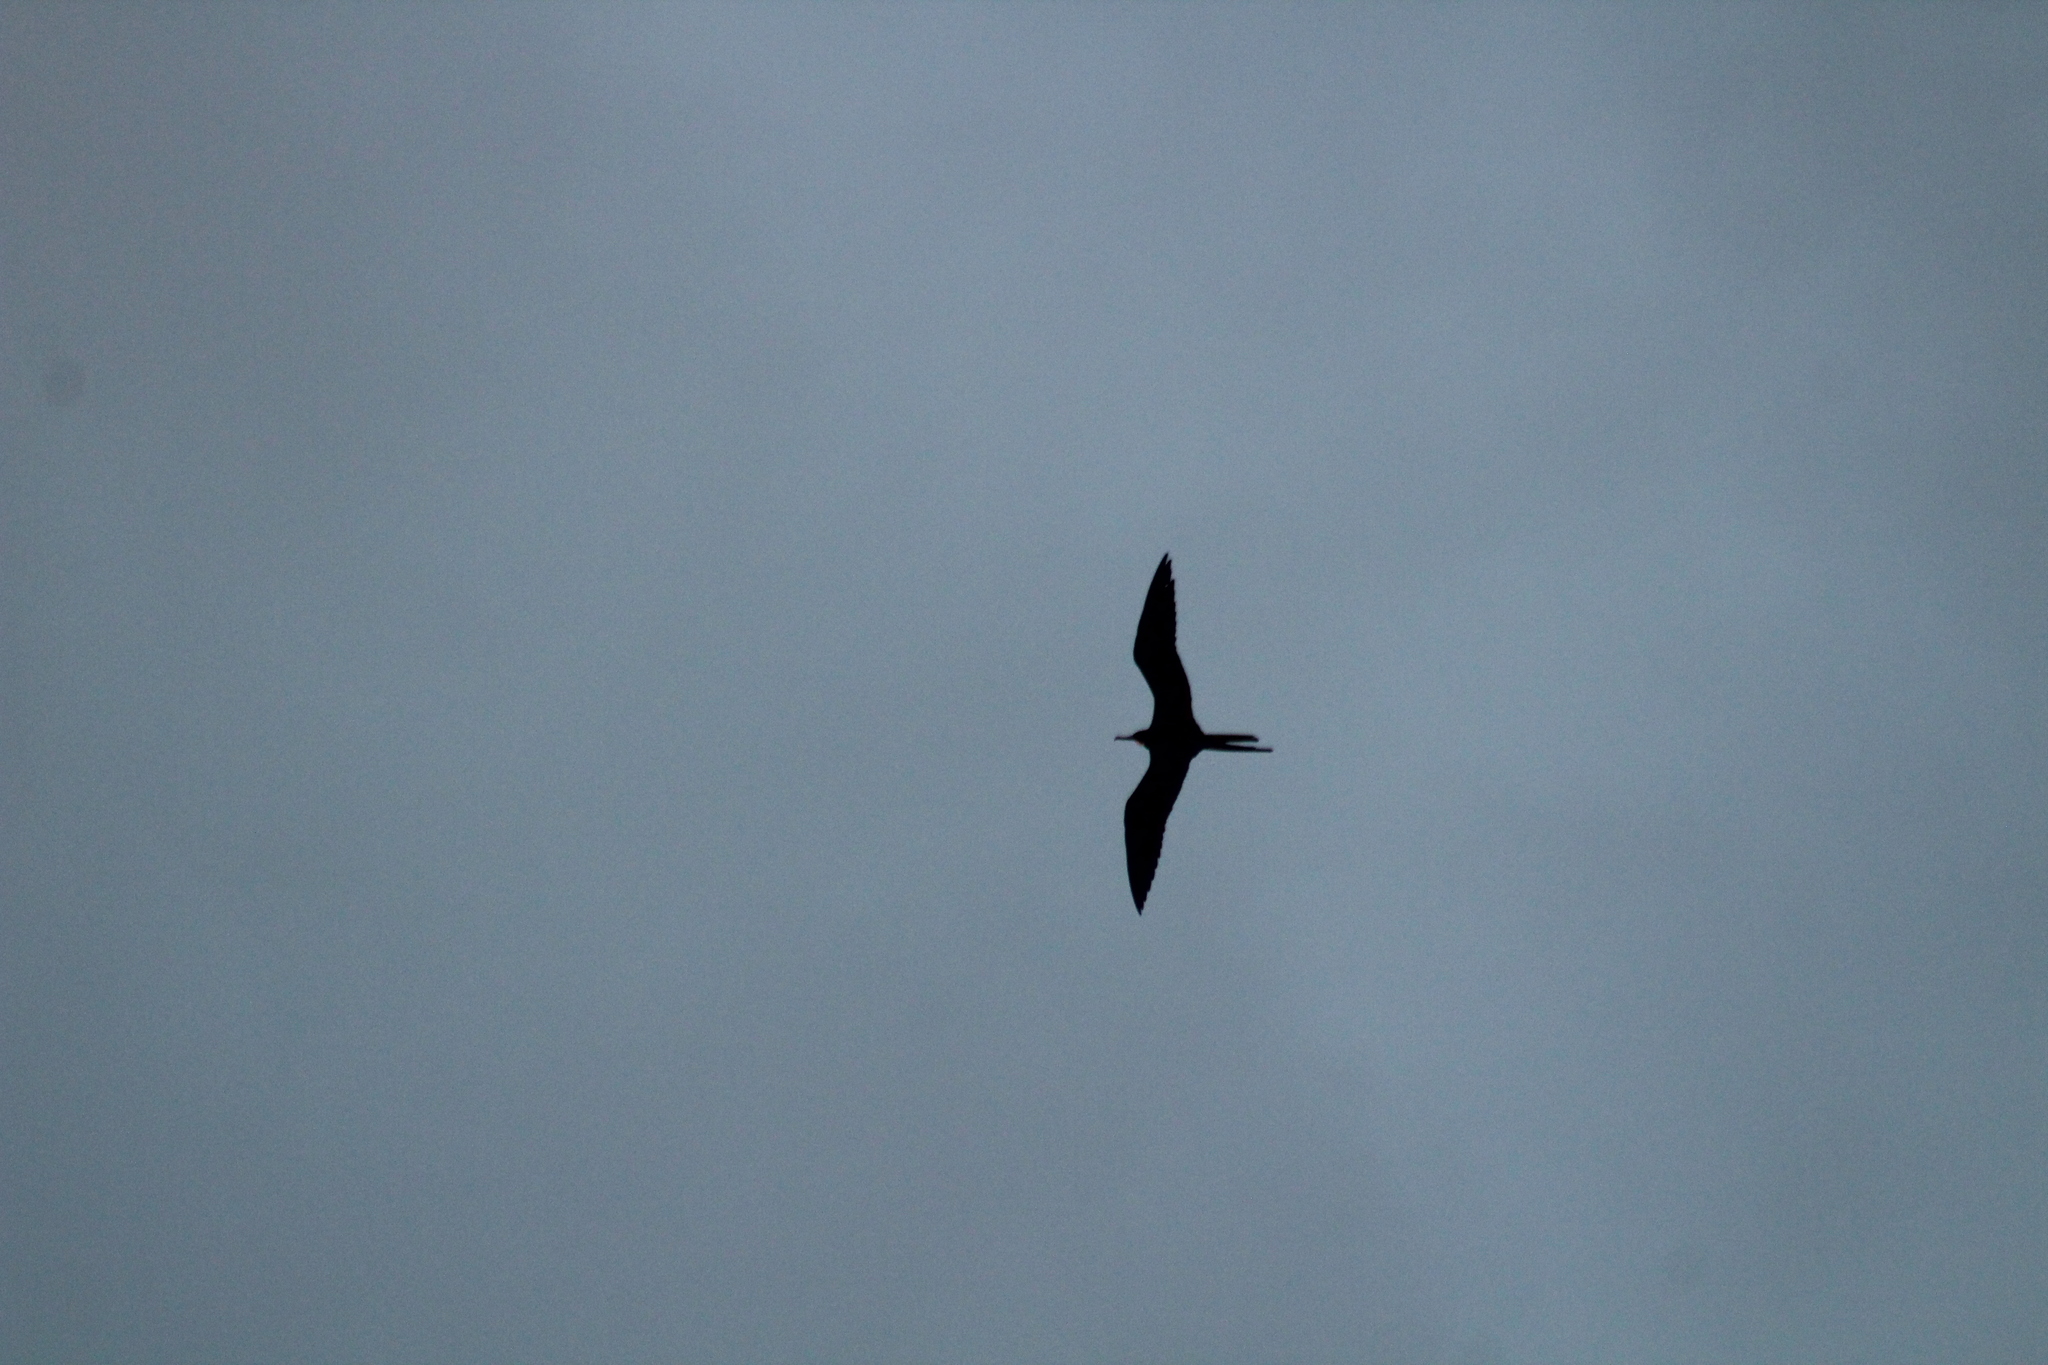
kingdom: Animalia
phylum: Chordata
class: Aves
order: Suliformes
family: Fregatidae
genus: Fregata
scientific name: Fregata magnificens
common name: Magnificent frigatebird
